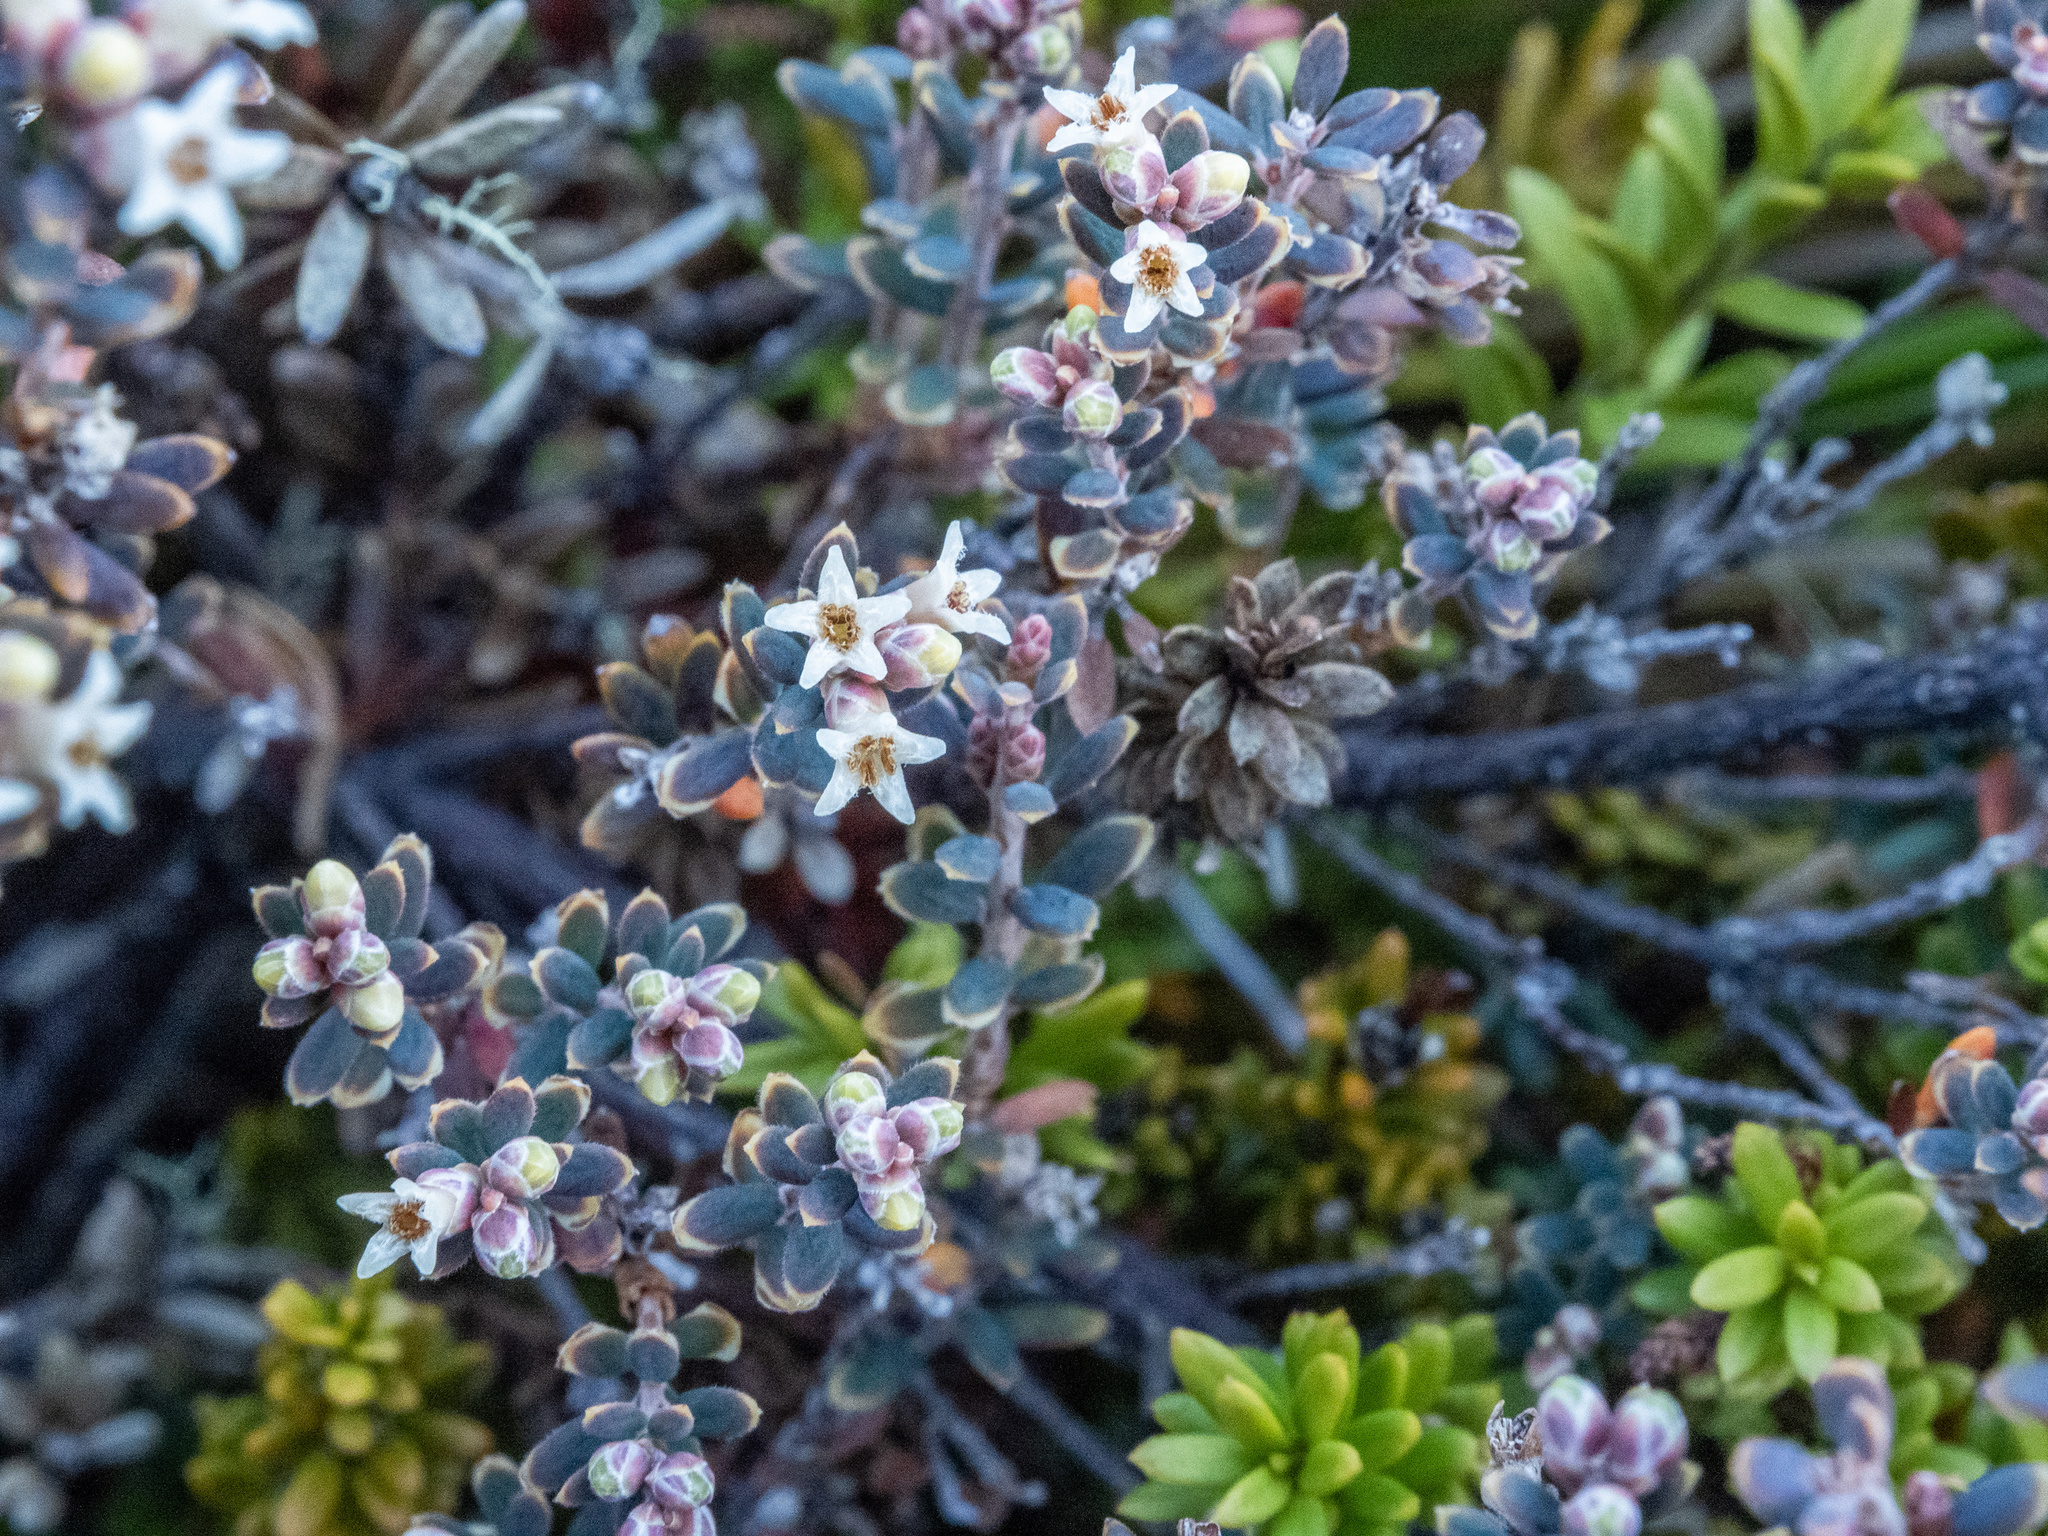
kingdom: Plantae
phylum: Tracheophyta
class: Magnoliopsida
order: Ericales
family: Ericaceae
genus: Acrothamnus
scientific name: Acrothamnus colensoi
